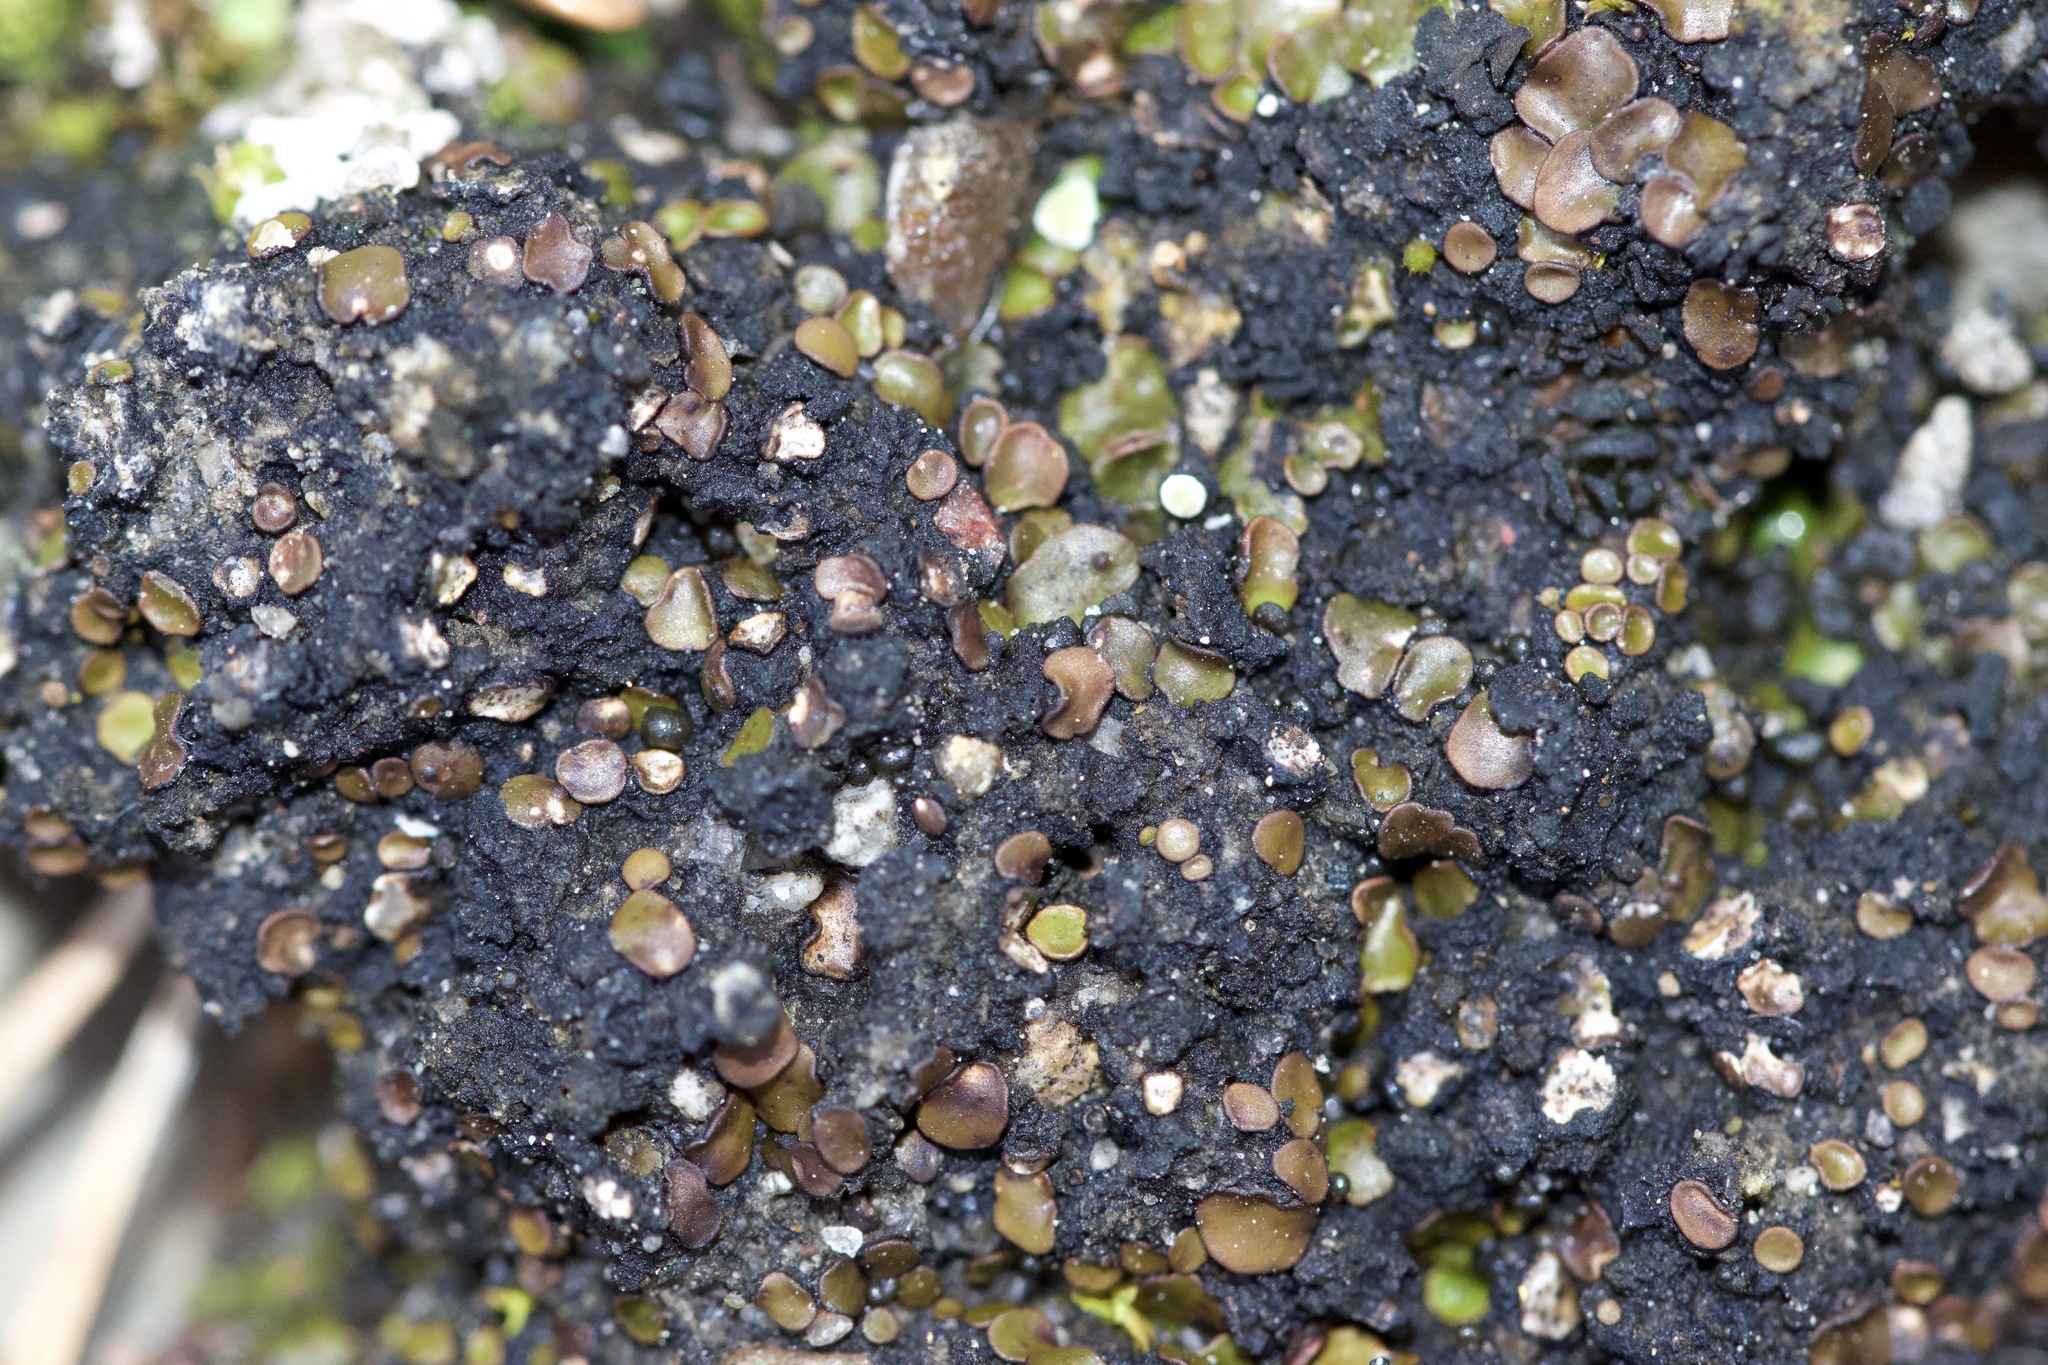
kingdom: Fungi
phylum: Ascomycota
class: Eurotiomycetes
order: Verrucariales
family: Verrucariaceae
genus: Catapyrenium
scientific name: Catapyrenium squamulosum
